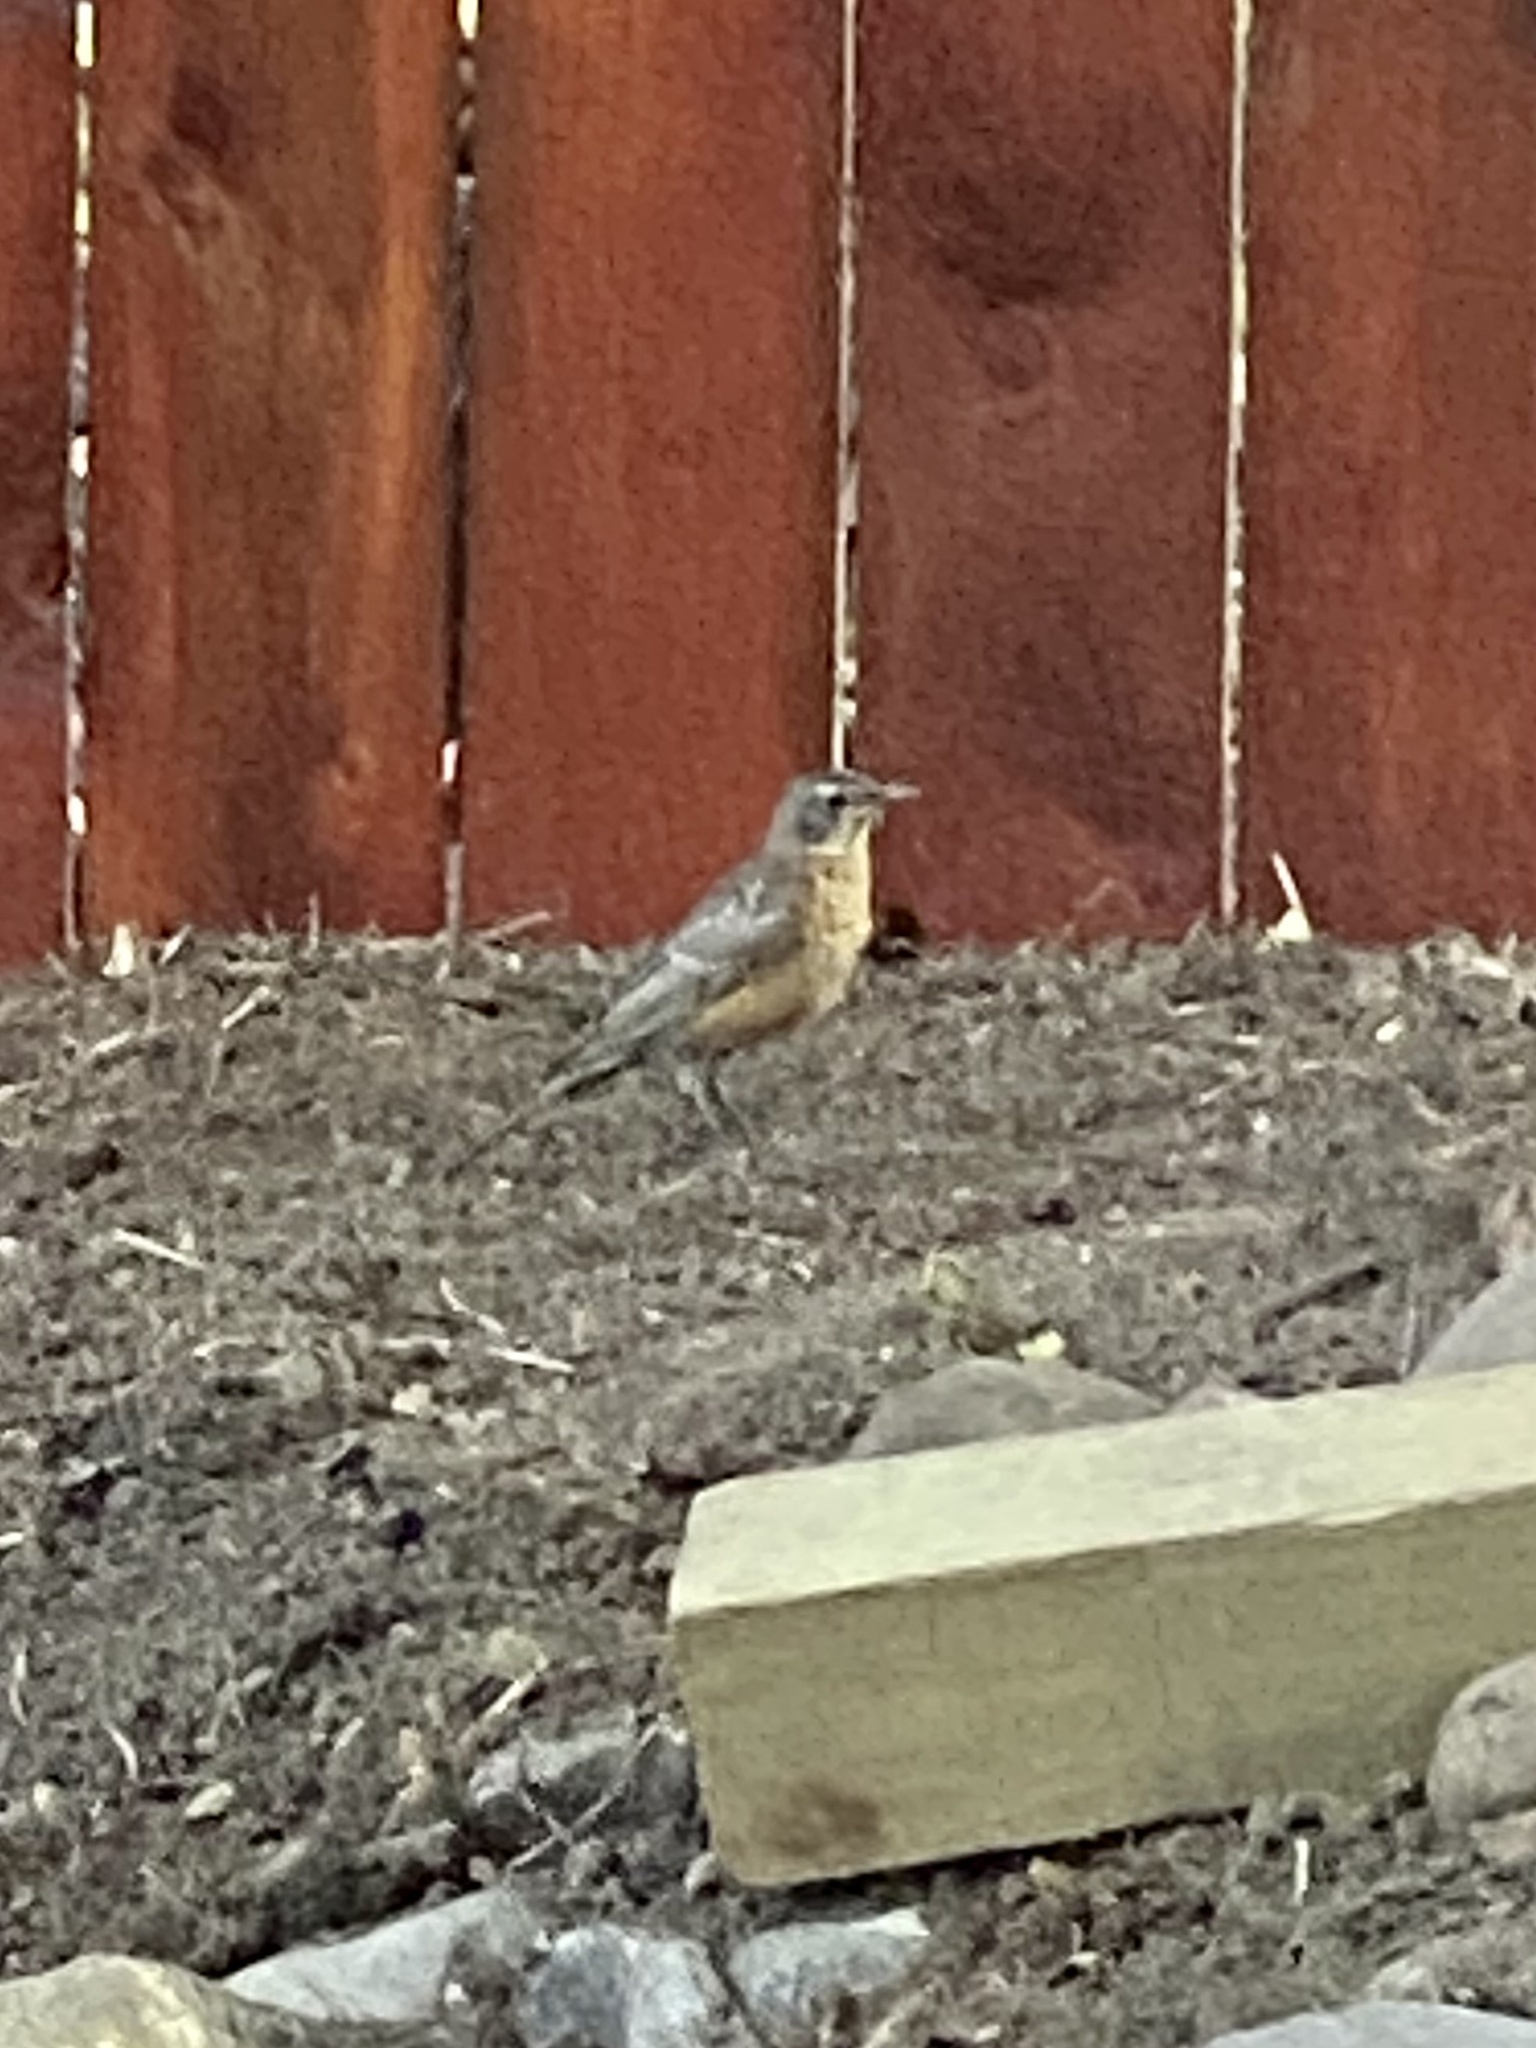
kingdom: Animalia
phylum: Chordata
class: Aves
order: Passeriformes
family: Turdidae
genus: Turdus
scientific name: Turdus migratorius
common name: American robin
